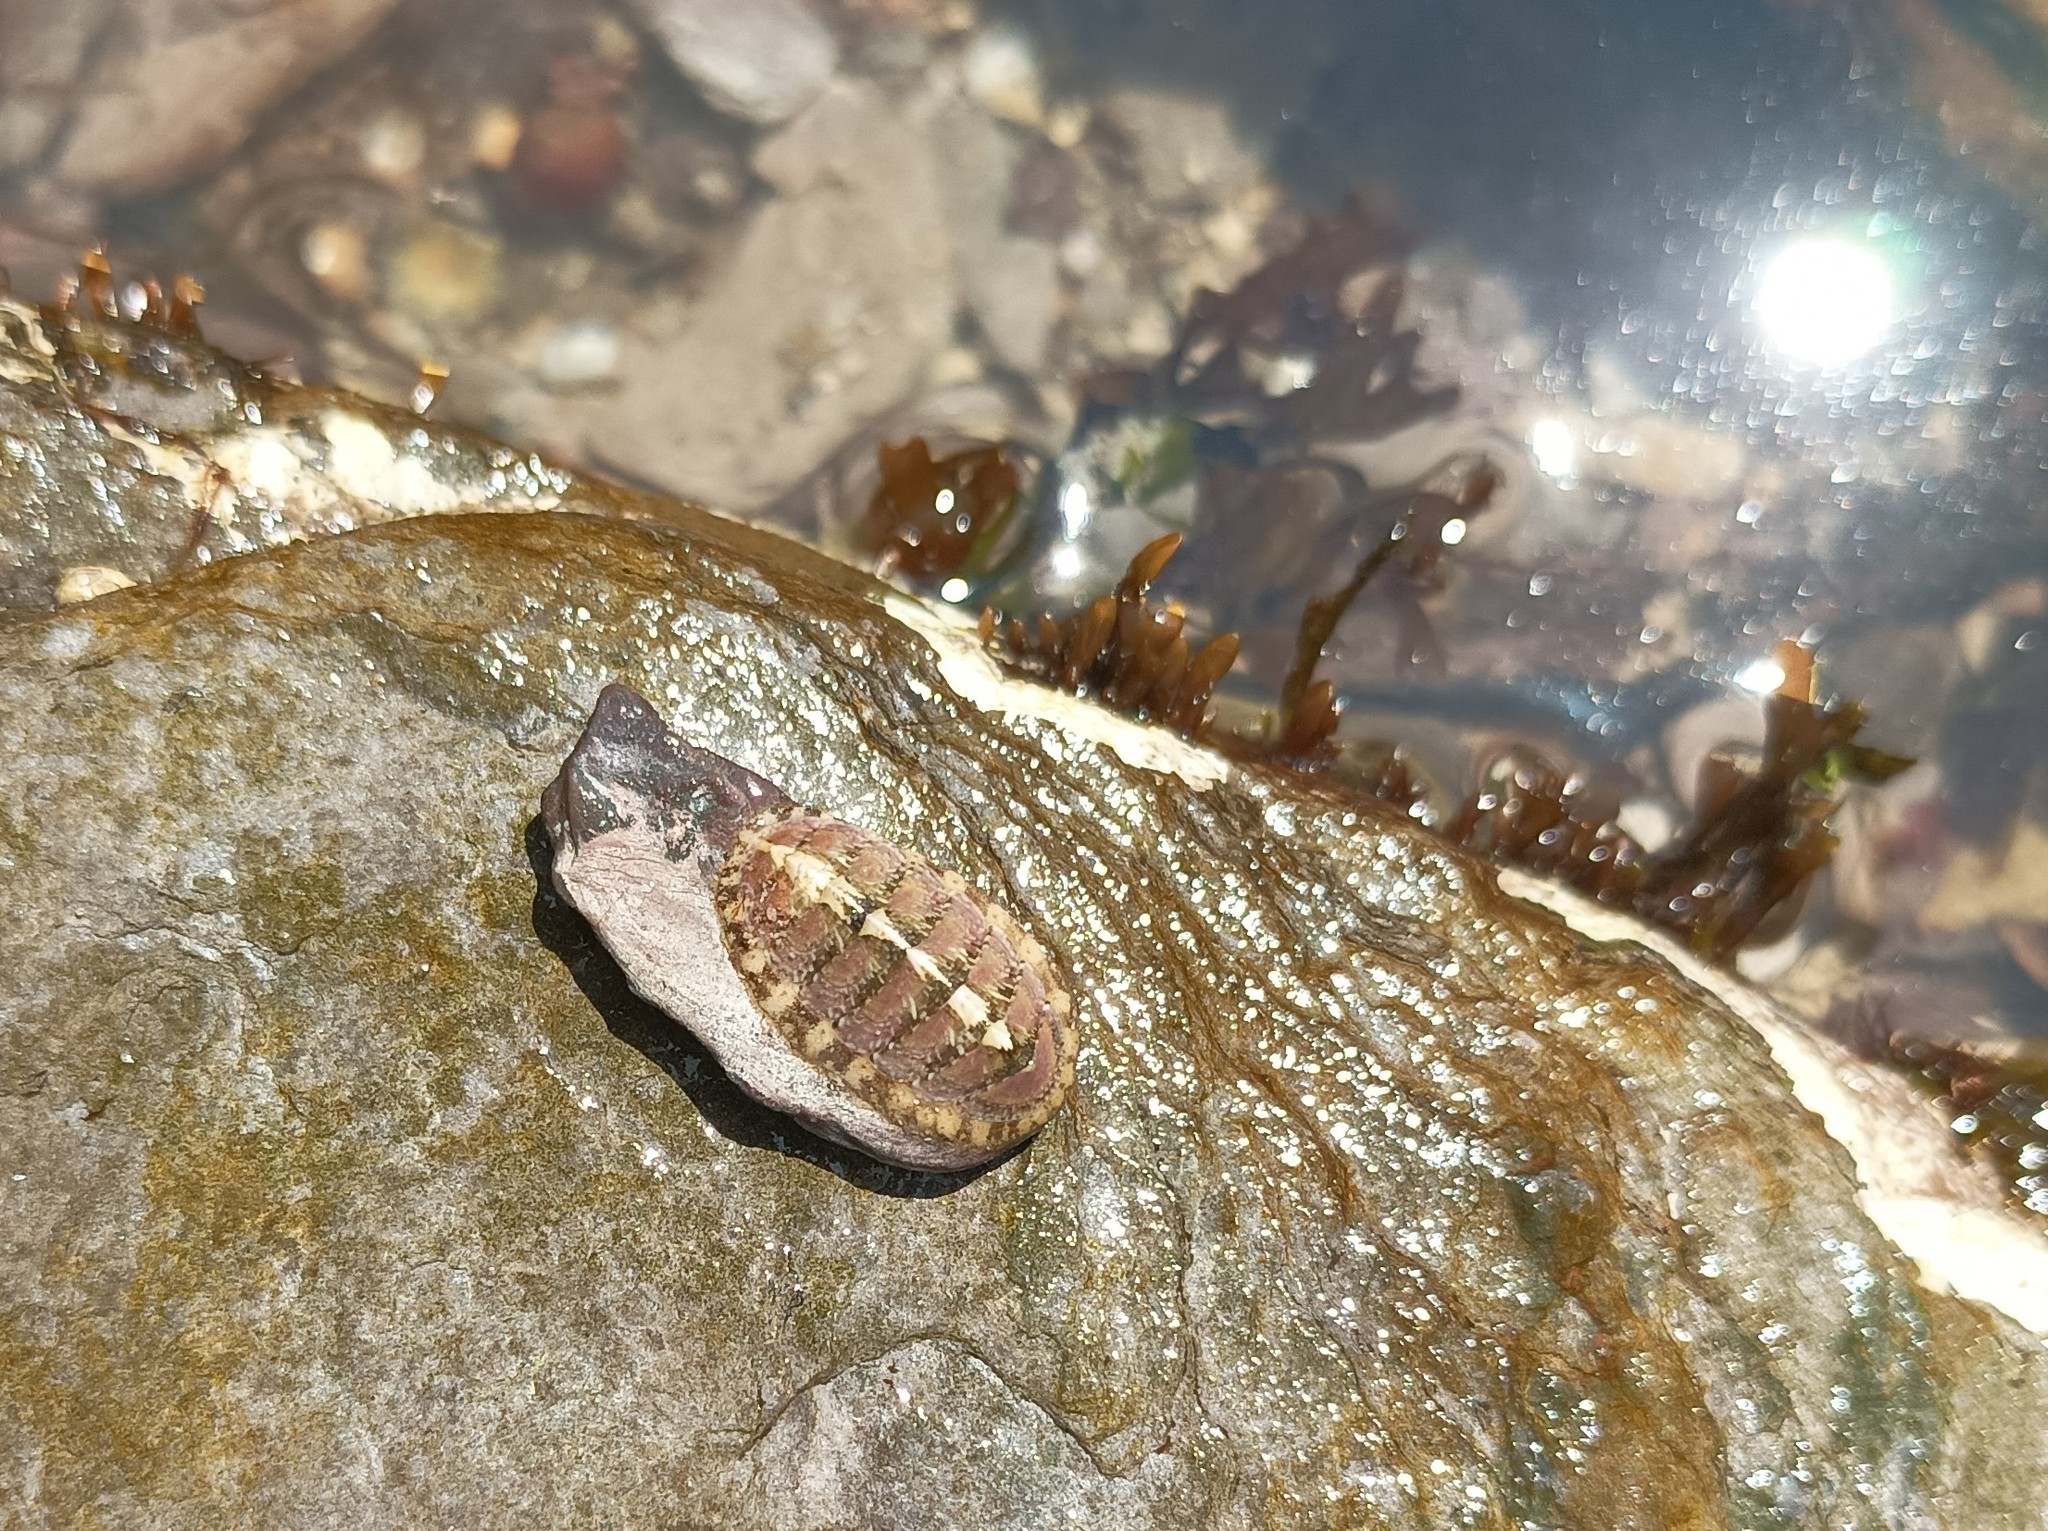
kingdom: Animalia
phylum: Mollusca
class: Polyplacophora
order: Chitonida
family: Tonicellidae
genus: Lepidochitona
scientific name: Lepidochitona cinerea
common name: Cinereous chiton
